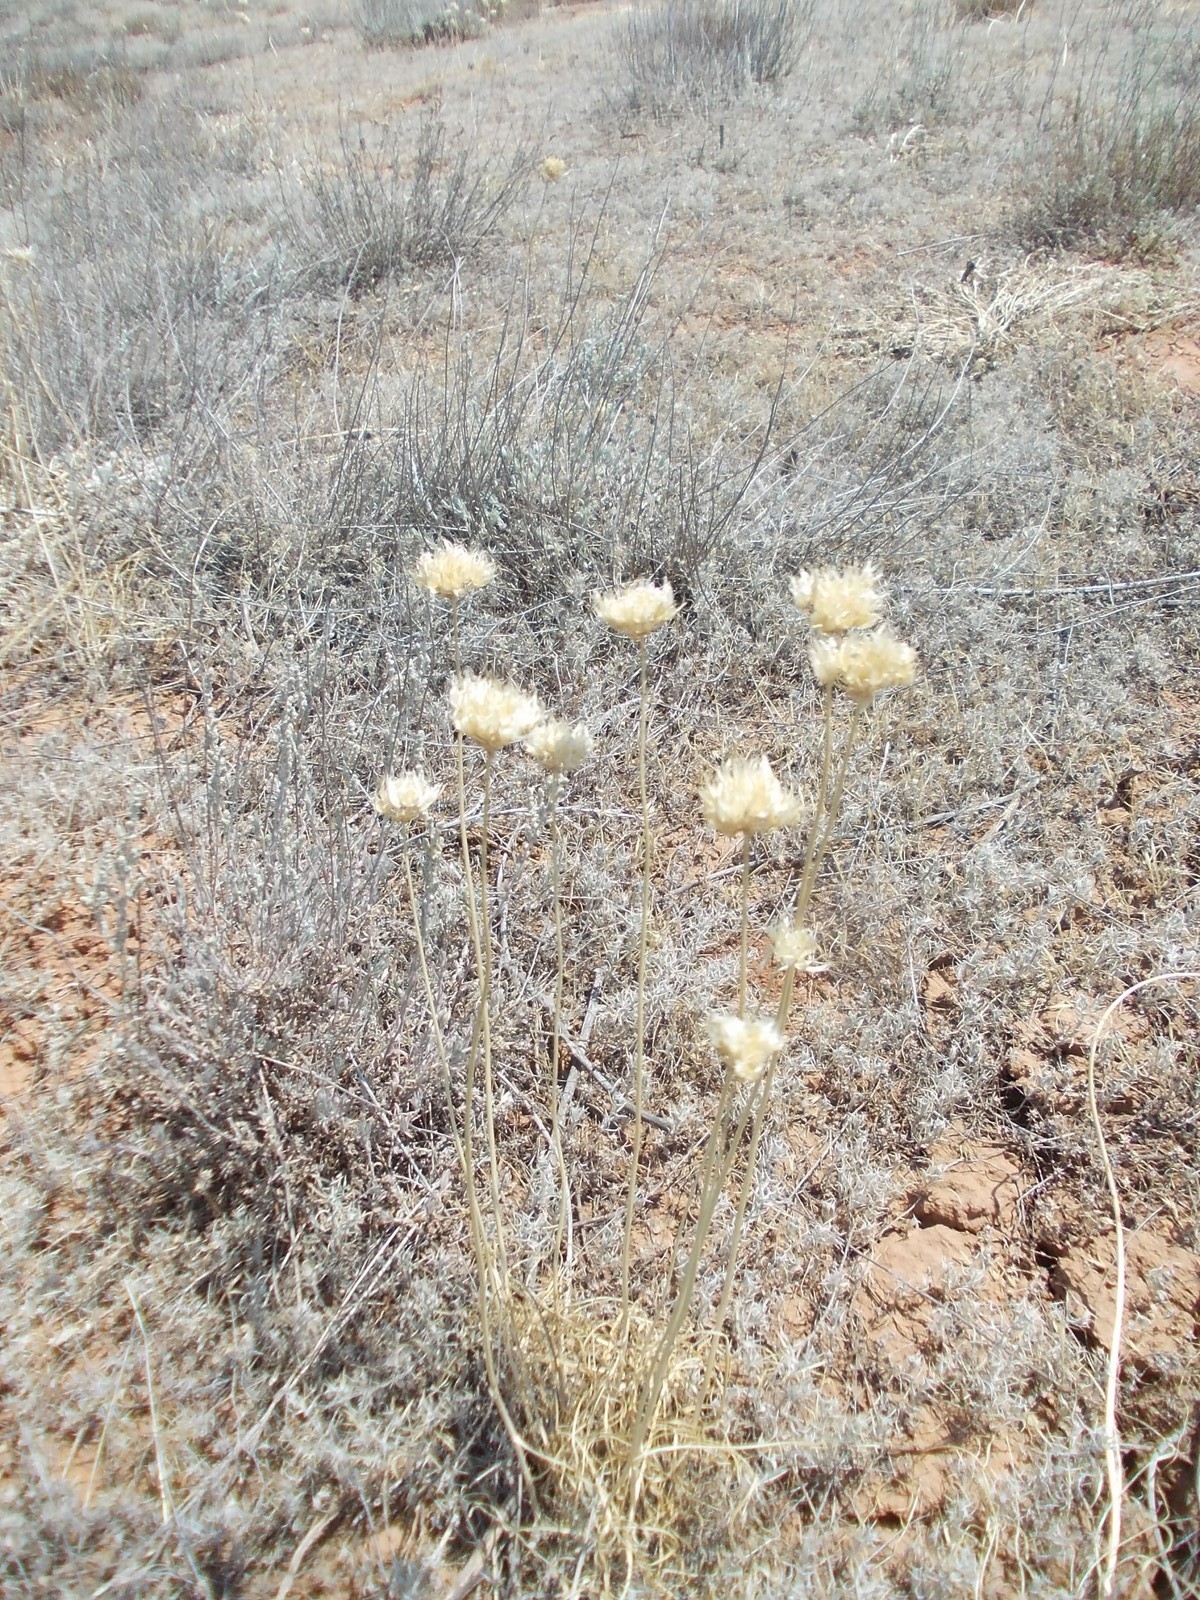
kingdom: Plantae
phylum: Tracheophyta
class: Liliopsida
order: Asparagales
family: Amaryllidaceae
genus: Allium
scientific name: Allium inderiense
